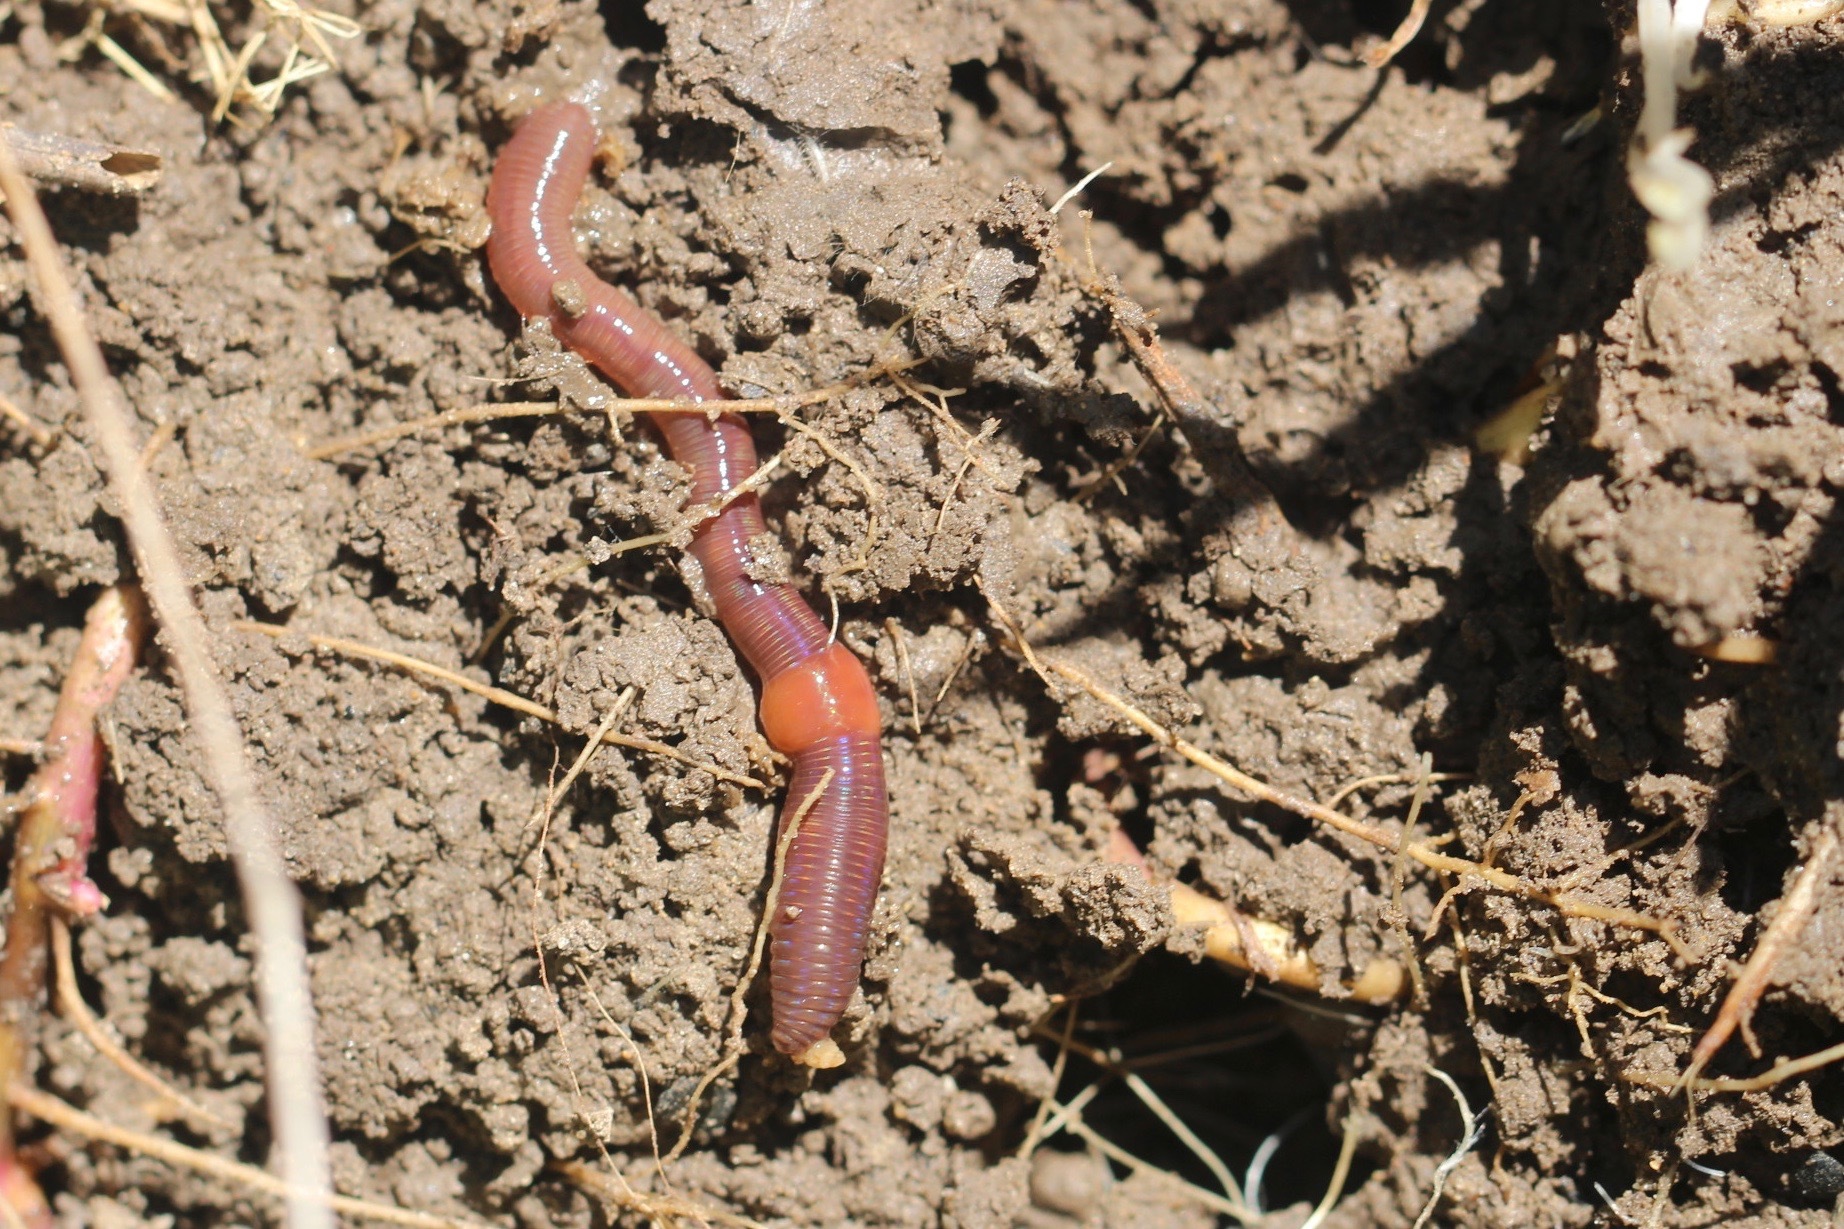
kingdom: Animalia
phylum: Annelida
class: Clitellata
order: Crassiclitellata
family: Lumbricidae
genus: Lumbricus
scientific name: Lumbricus terrestris
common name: Common earthworm
